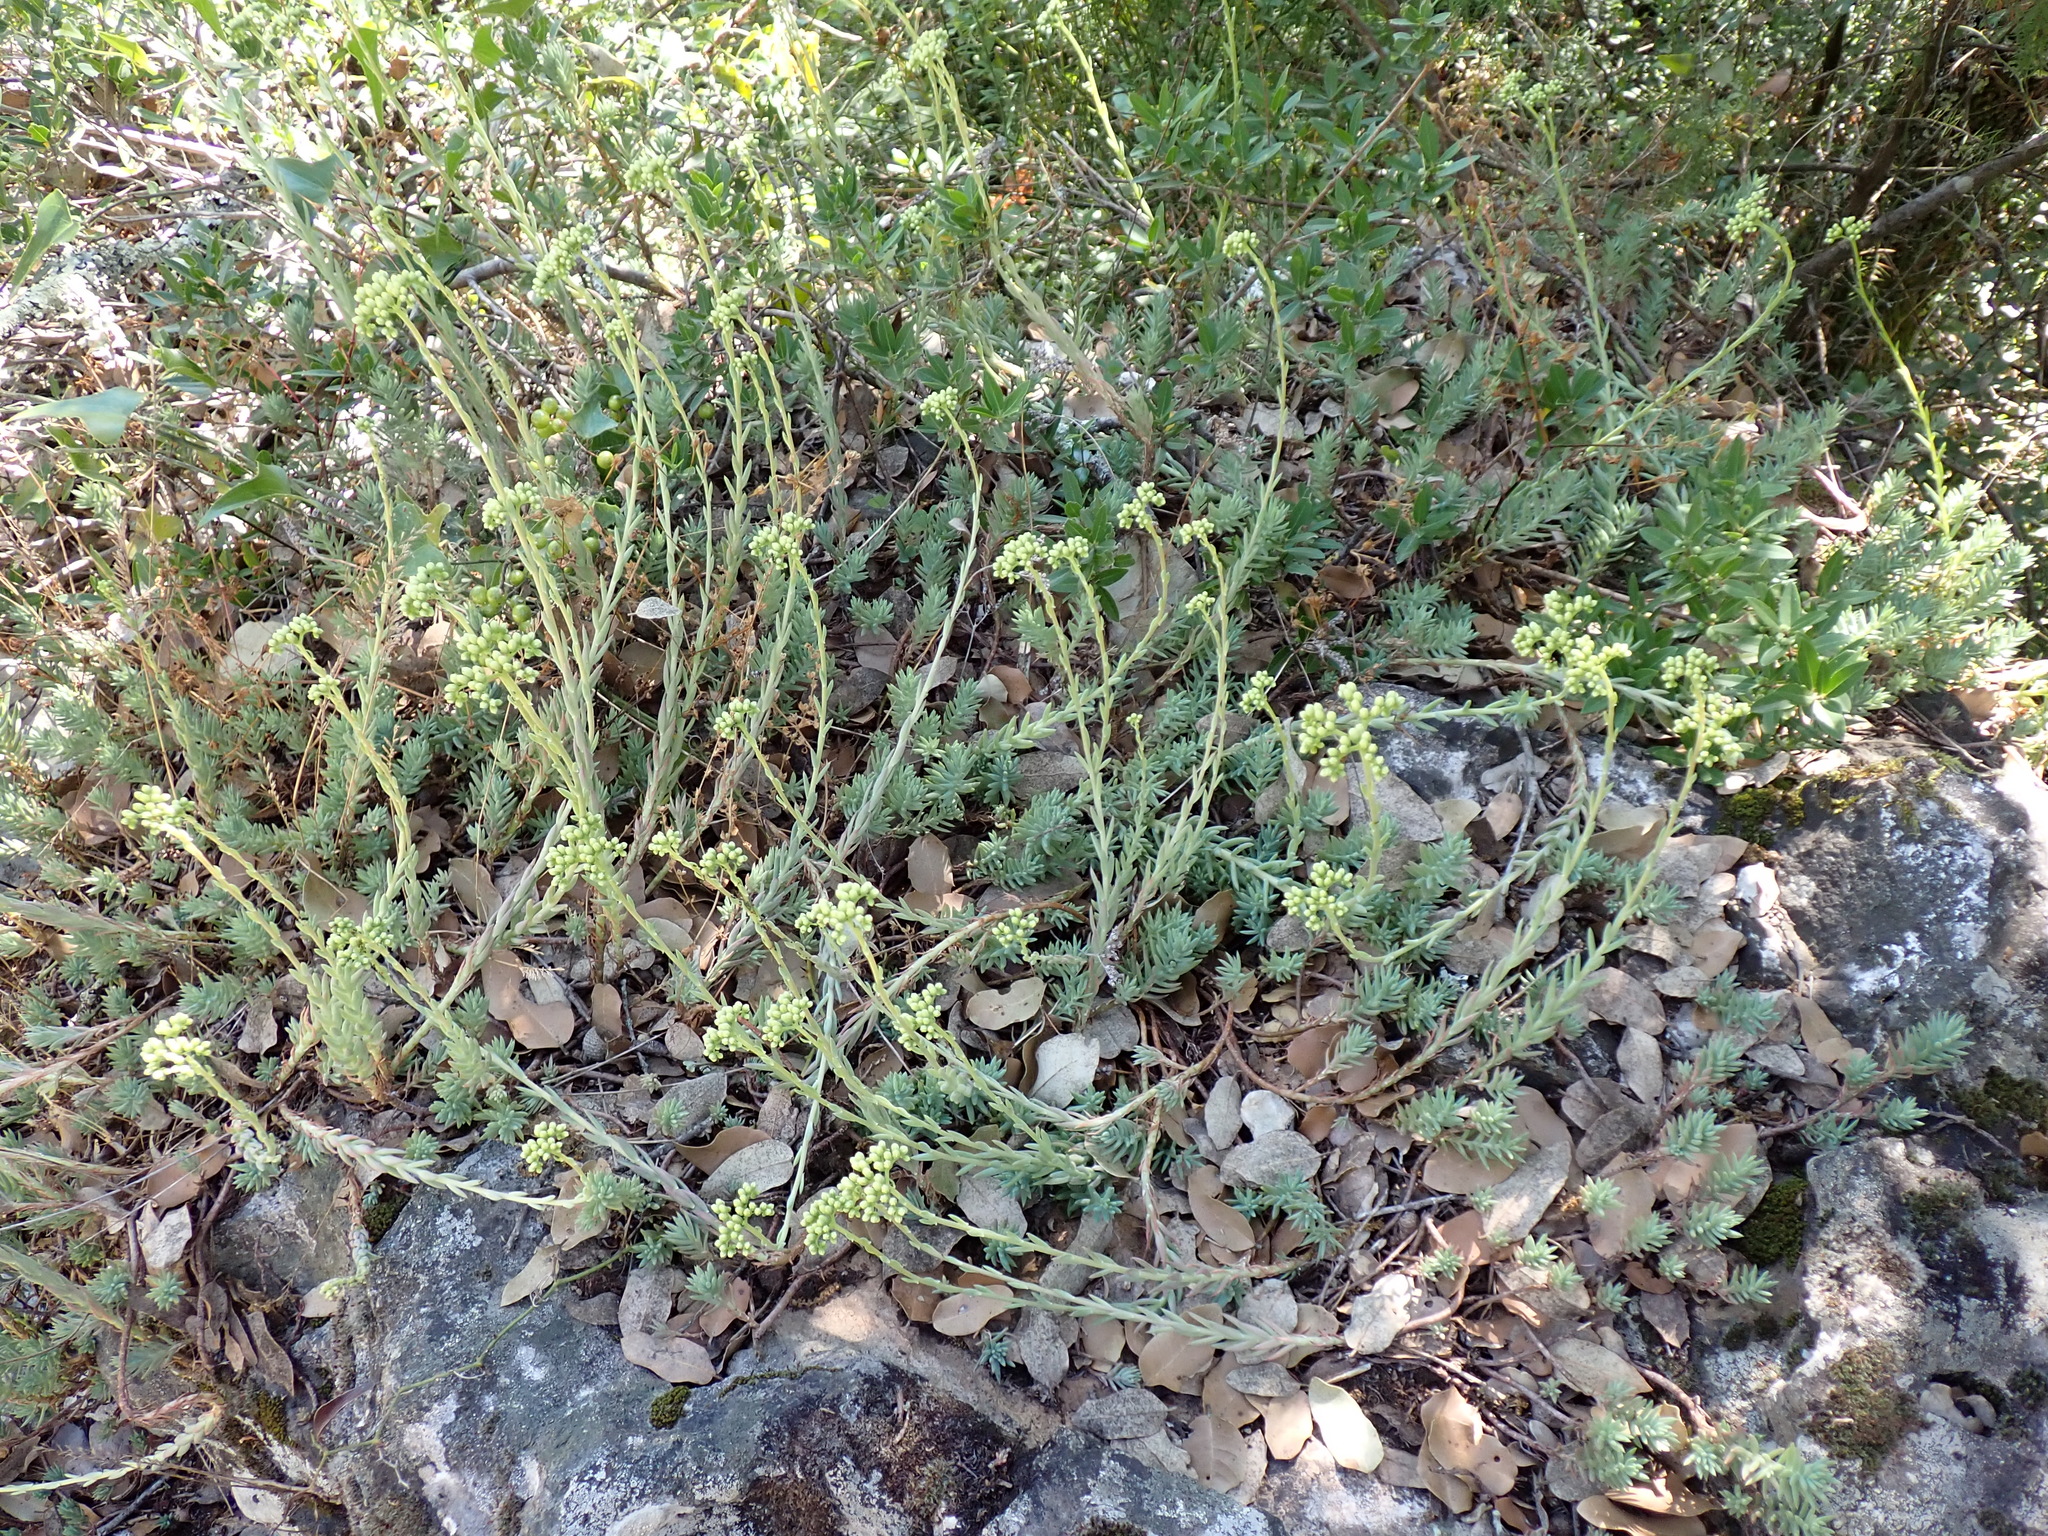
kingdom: Plantae
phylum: Tracheophyta
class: Magnoliopsida
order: Saxifragales
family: Crassulaceae
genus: Petrosedum
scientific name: Petrosedum sediforme
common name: Pale stonecrop
